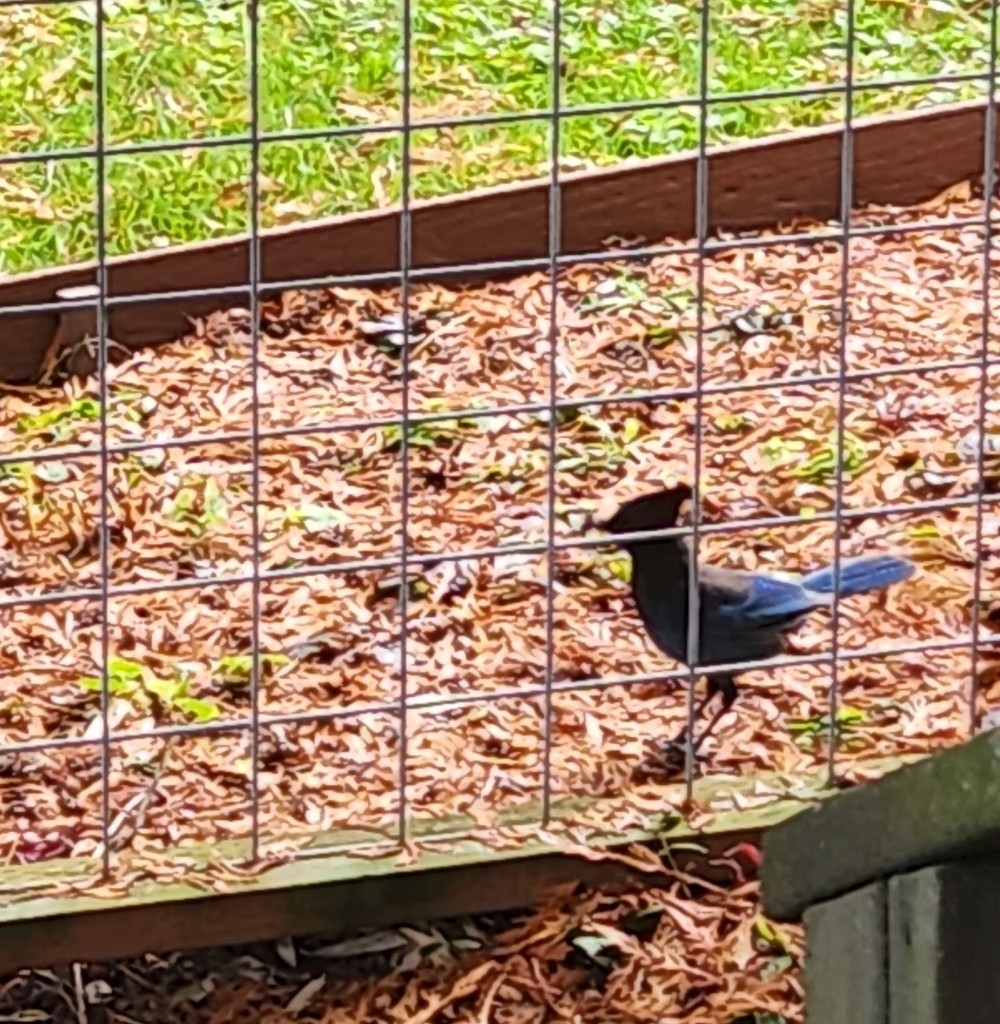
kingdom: Animalia
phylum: Chordata
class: Aves
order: Passeriformes
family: Corvidae
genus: Cyanocitta
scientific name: Cyanocitta stelleri
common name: Steller's jay
